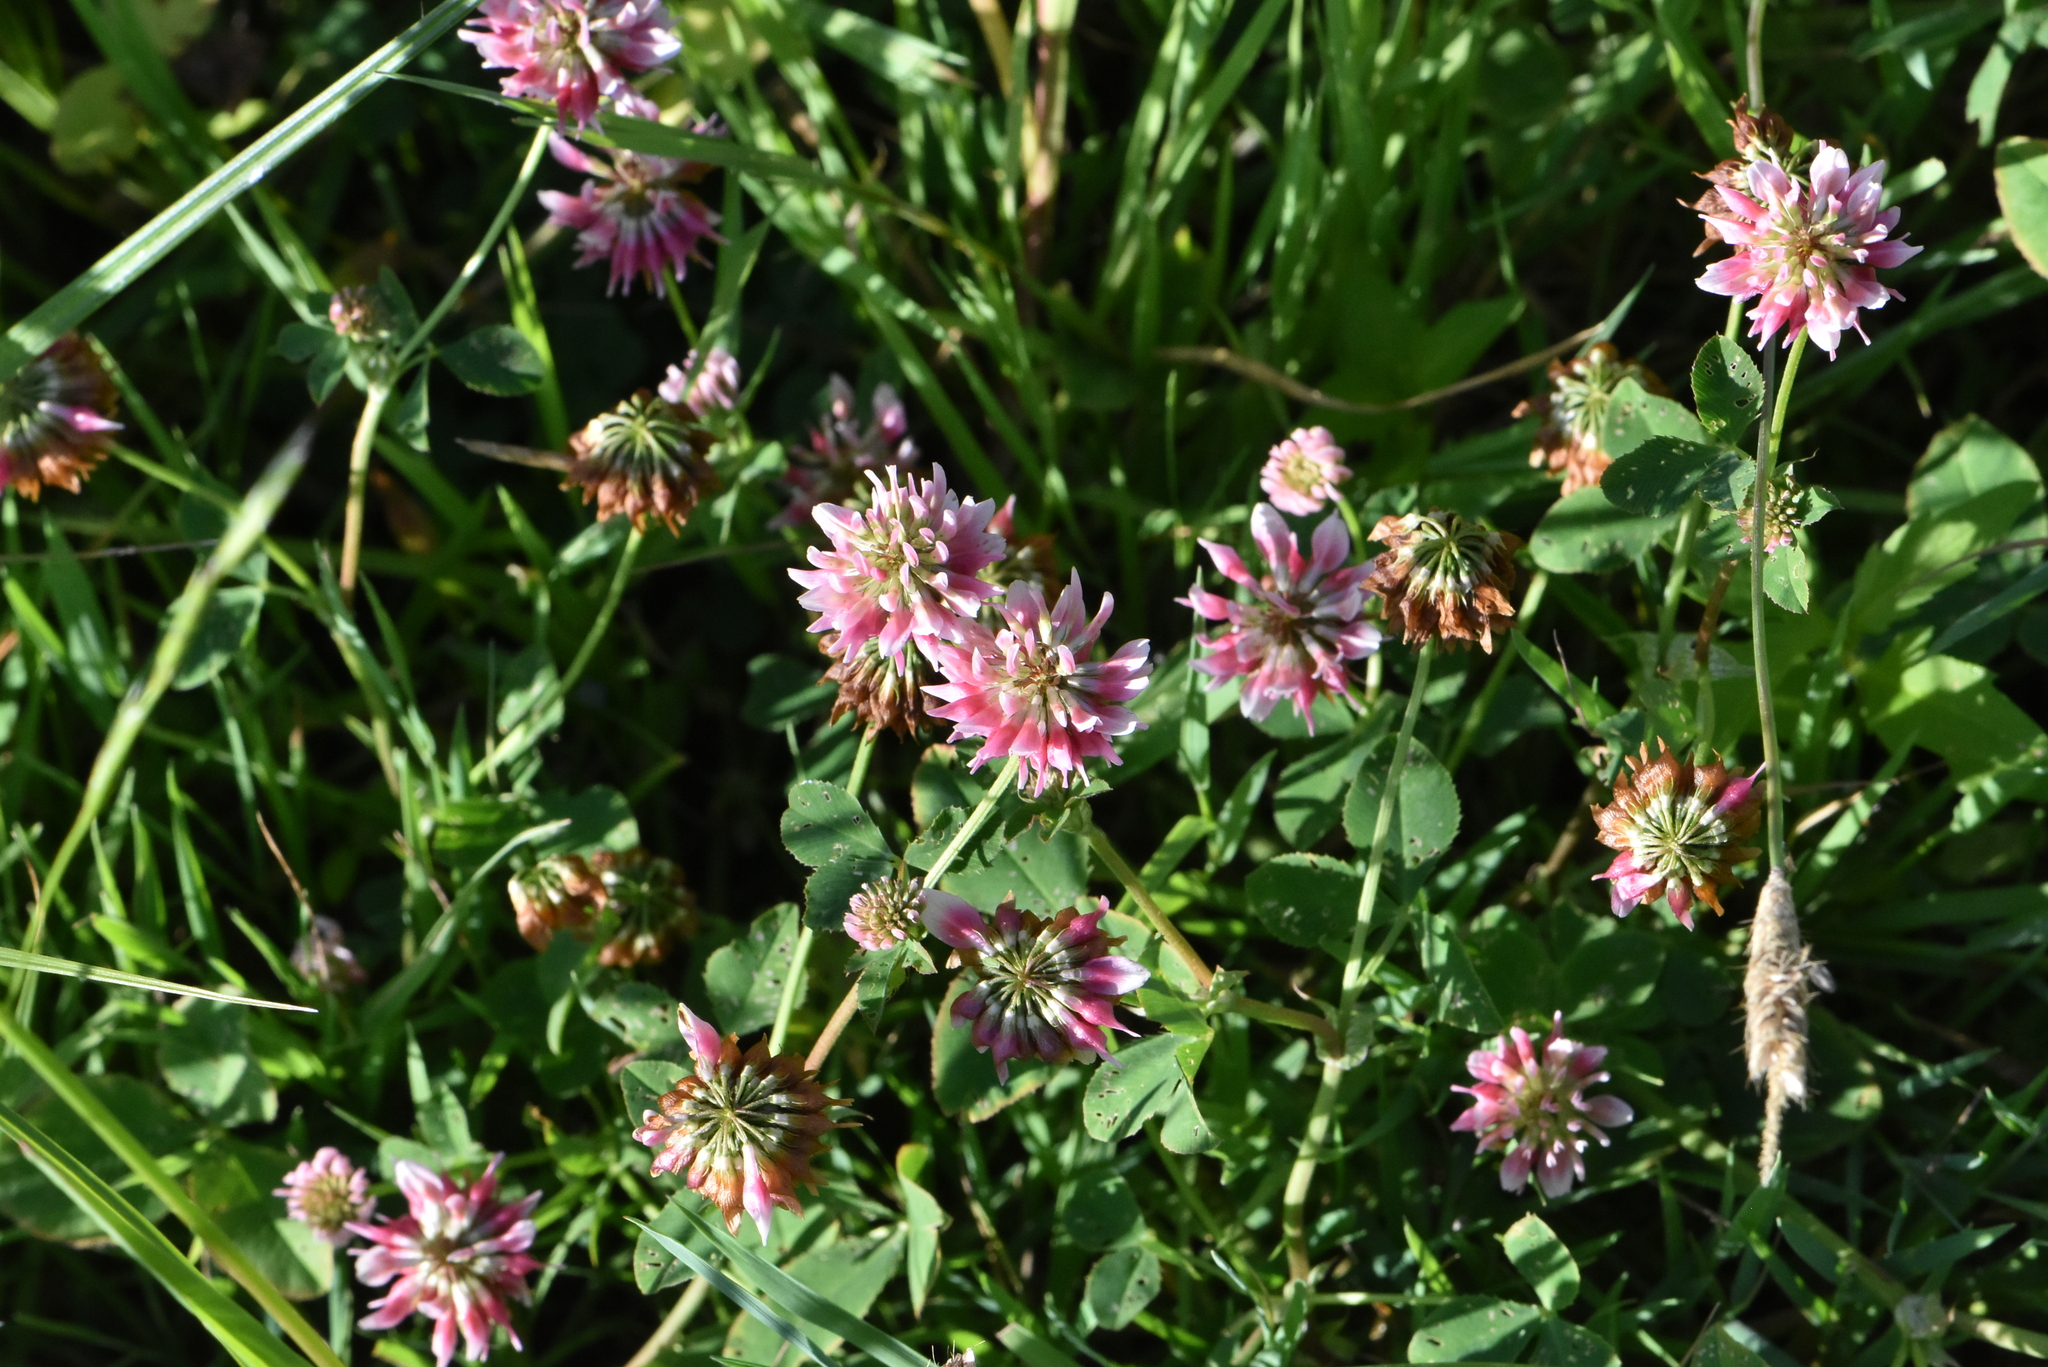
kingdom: Plantae
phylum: Tracheophyta
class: Magnoliopsida
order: Fabales
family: Fabaceae
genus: Trifolium
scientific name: Trifolium hybridum
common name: Alsike clover
